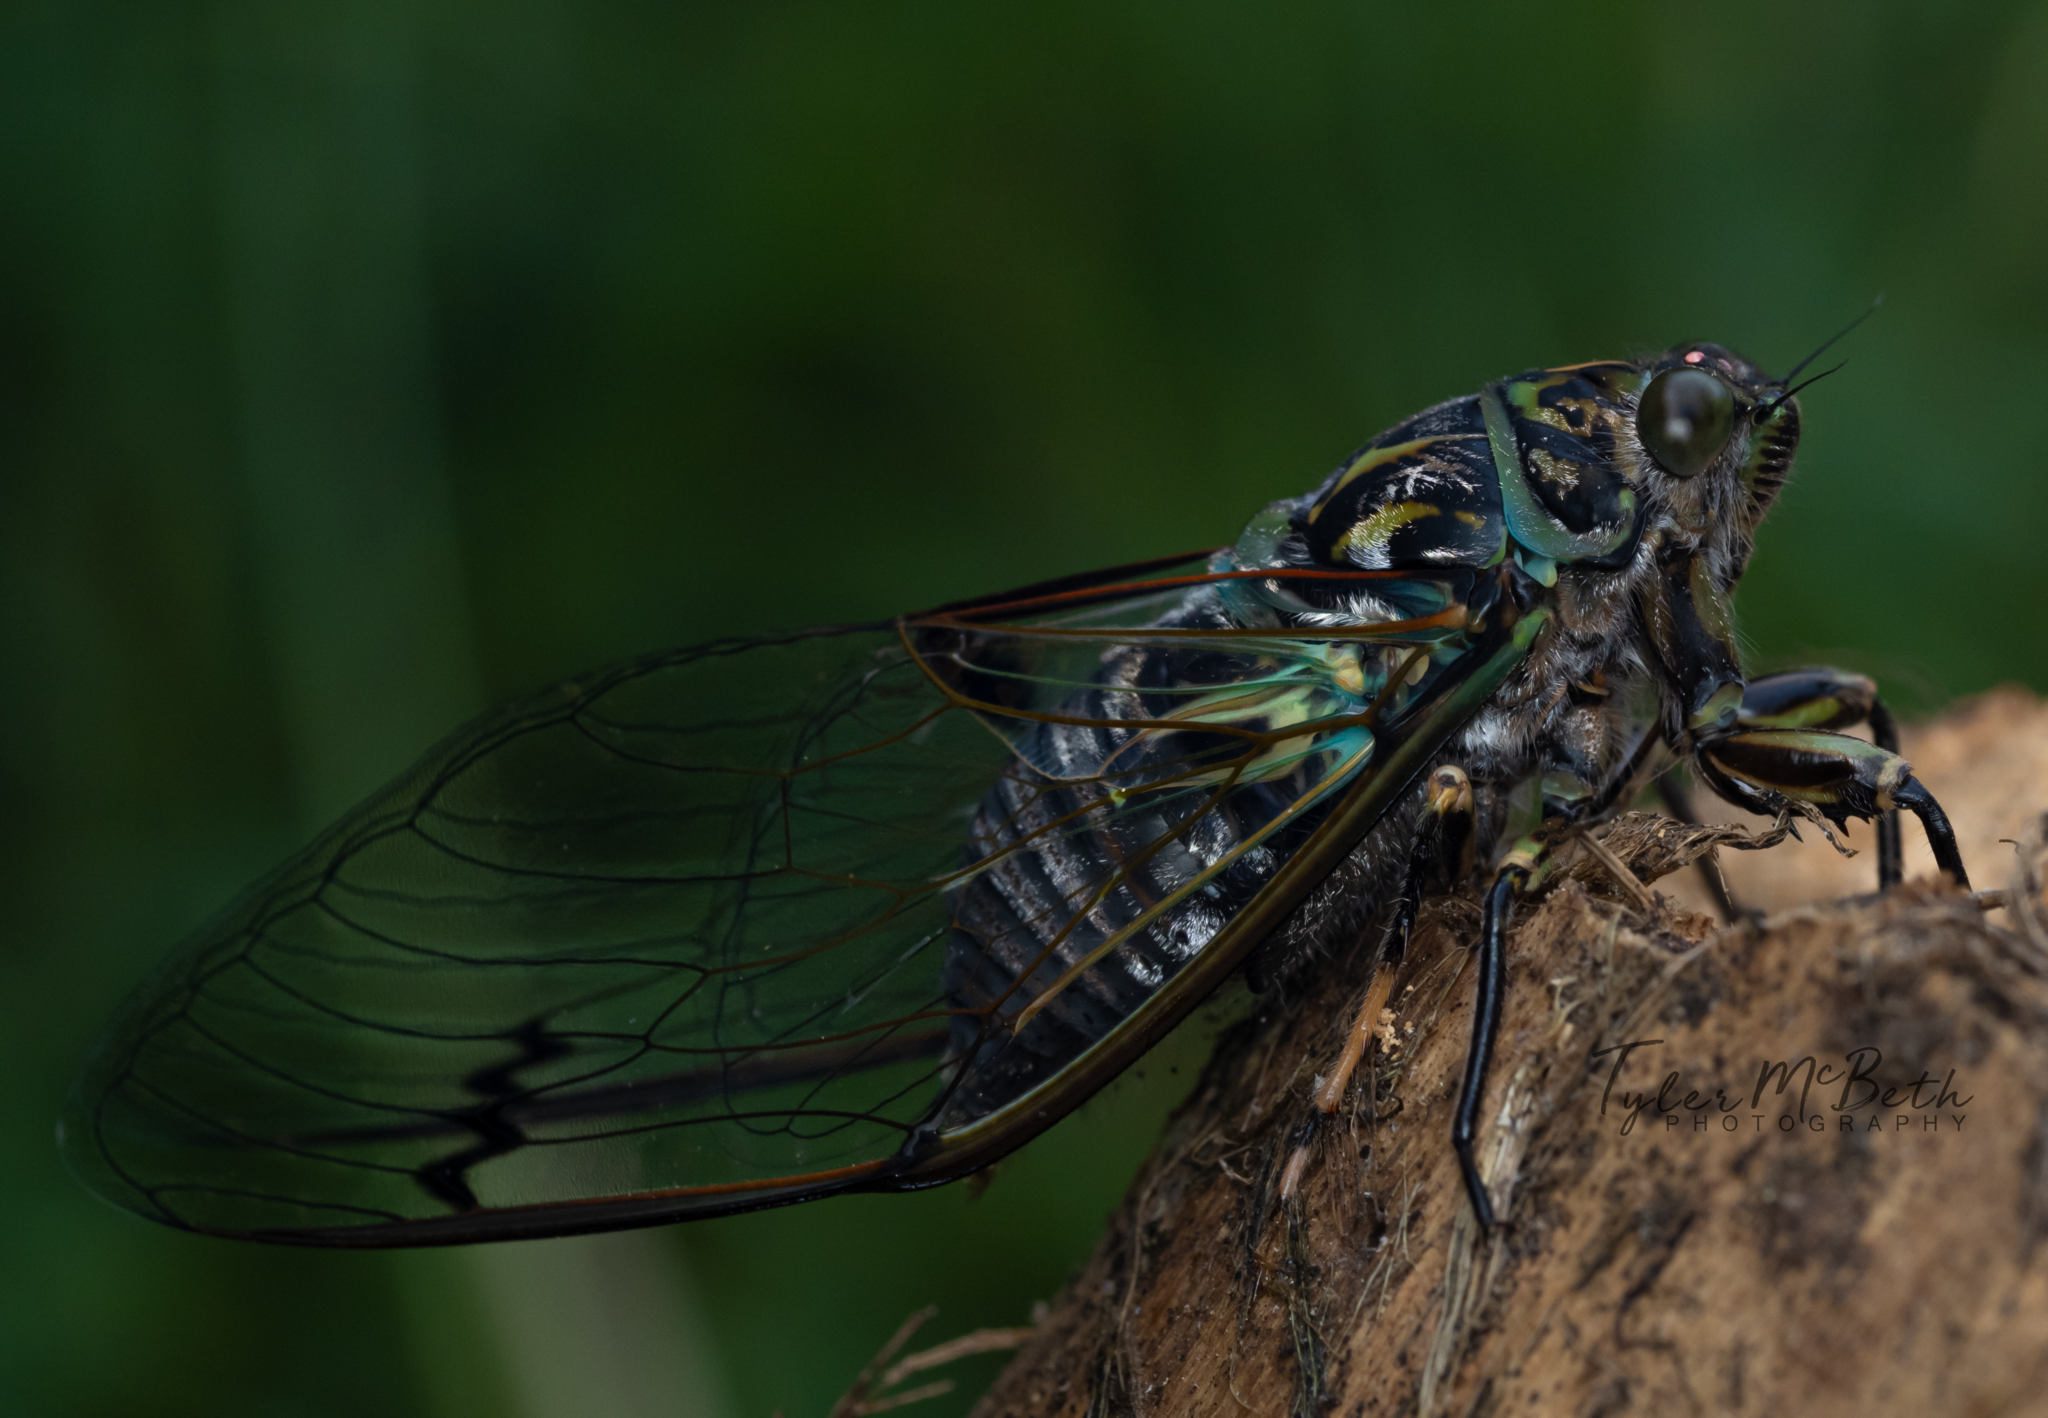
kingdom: Animalia
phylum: Arthropoda
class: Insecta
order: Hemiptera
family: Cicadidae
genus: Amphipsalta
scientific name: Amphipsalta zelandica
